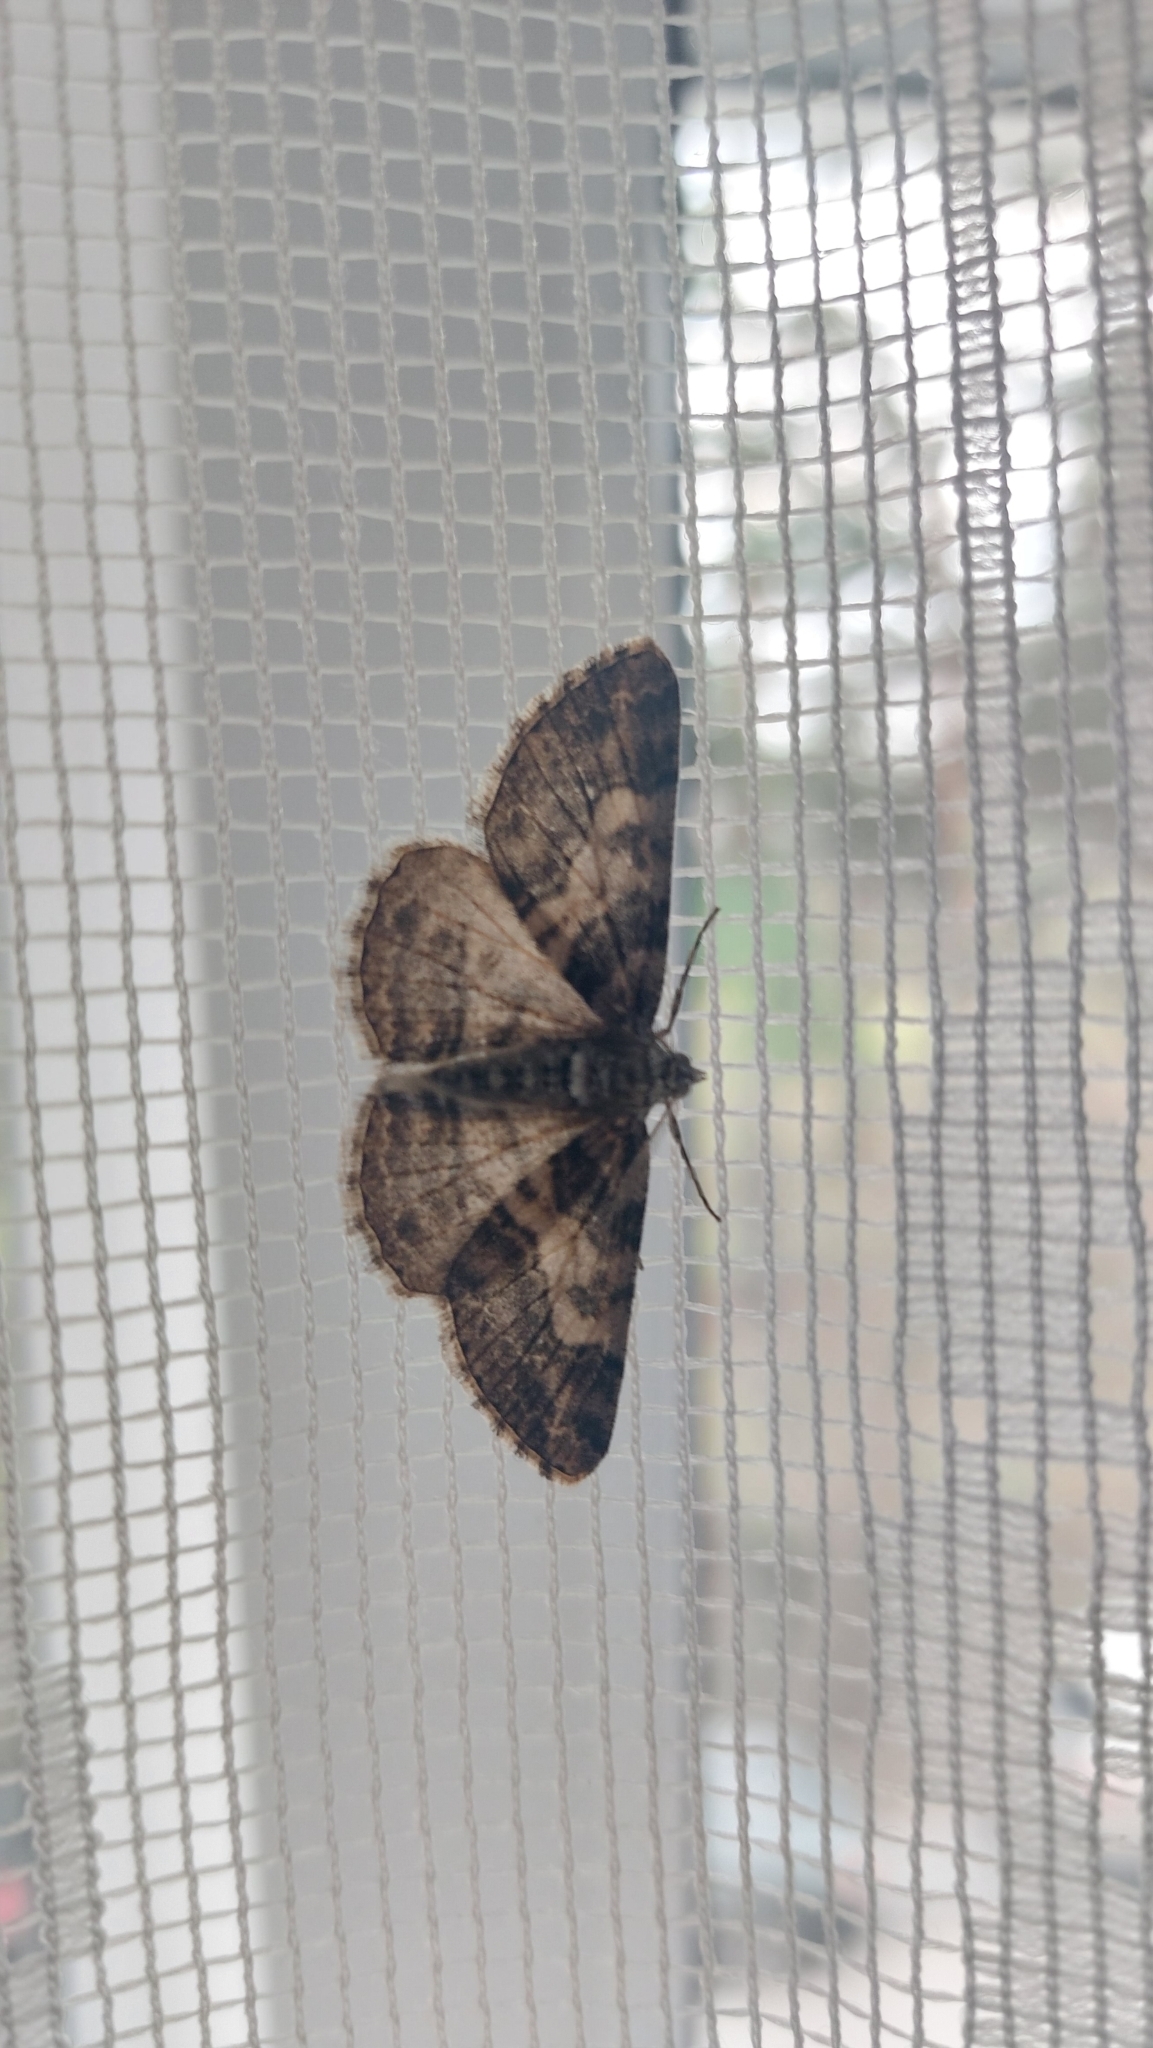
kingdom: Animalia
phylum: Arthropoda
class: Insecta
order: Lepidoptera
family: Geometridae
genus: Cleora
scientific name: Cleora cinctaria
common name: Ringed carpet
